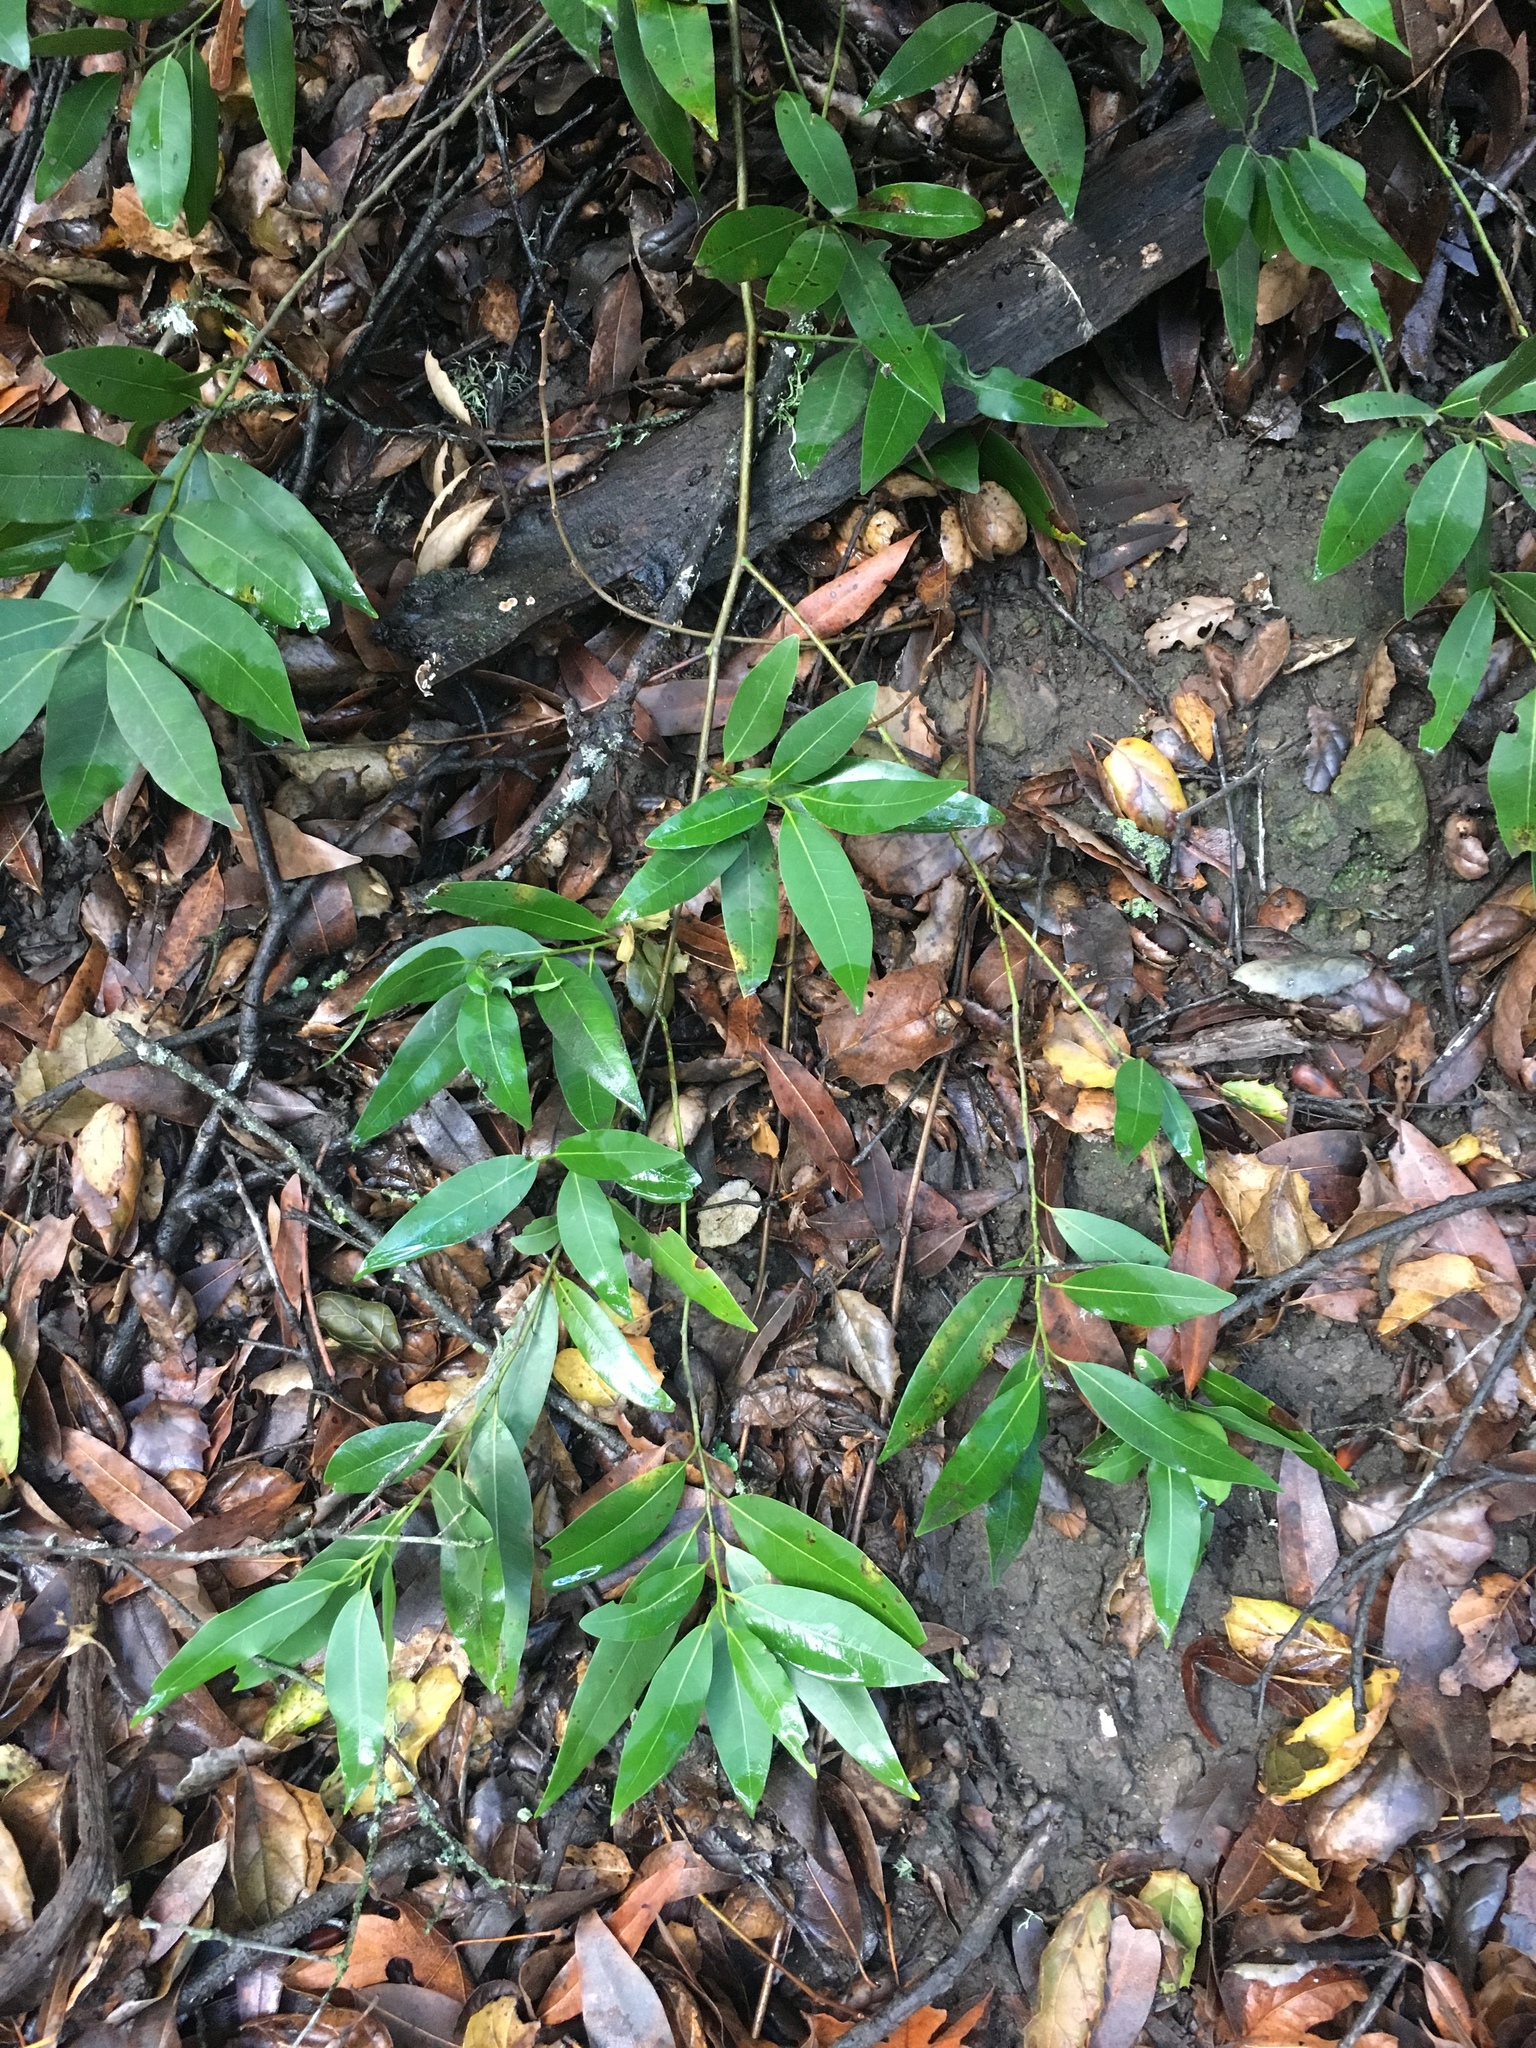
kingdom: Plantae
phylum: Tracheophyta
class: Magnoliopsida
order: Laurales
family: Lauraceae
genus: Umbellularia
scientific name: Umbellularia californica
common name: California bay
